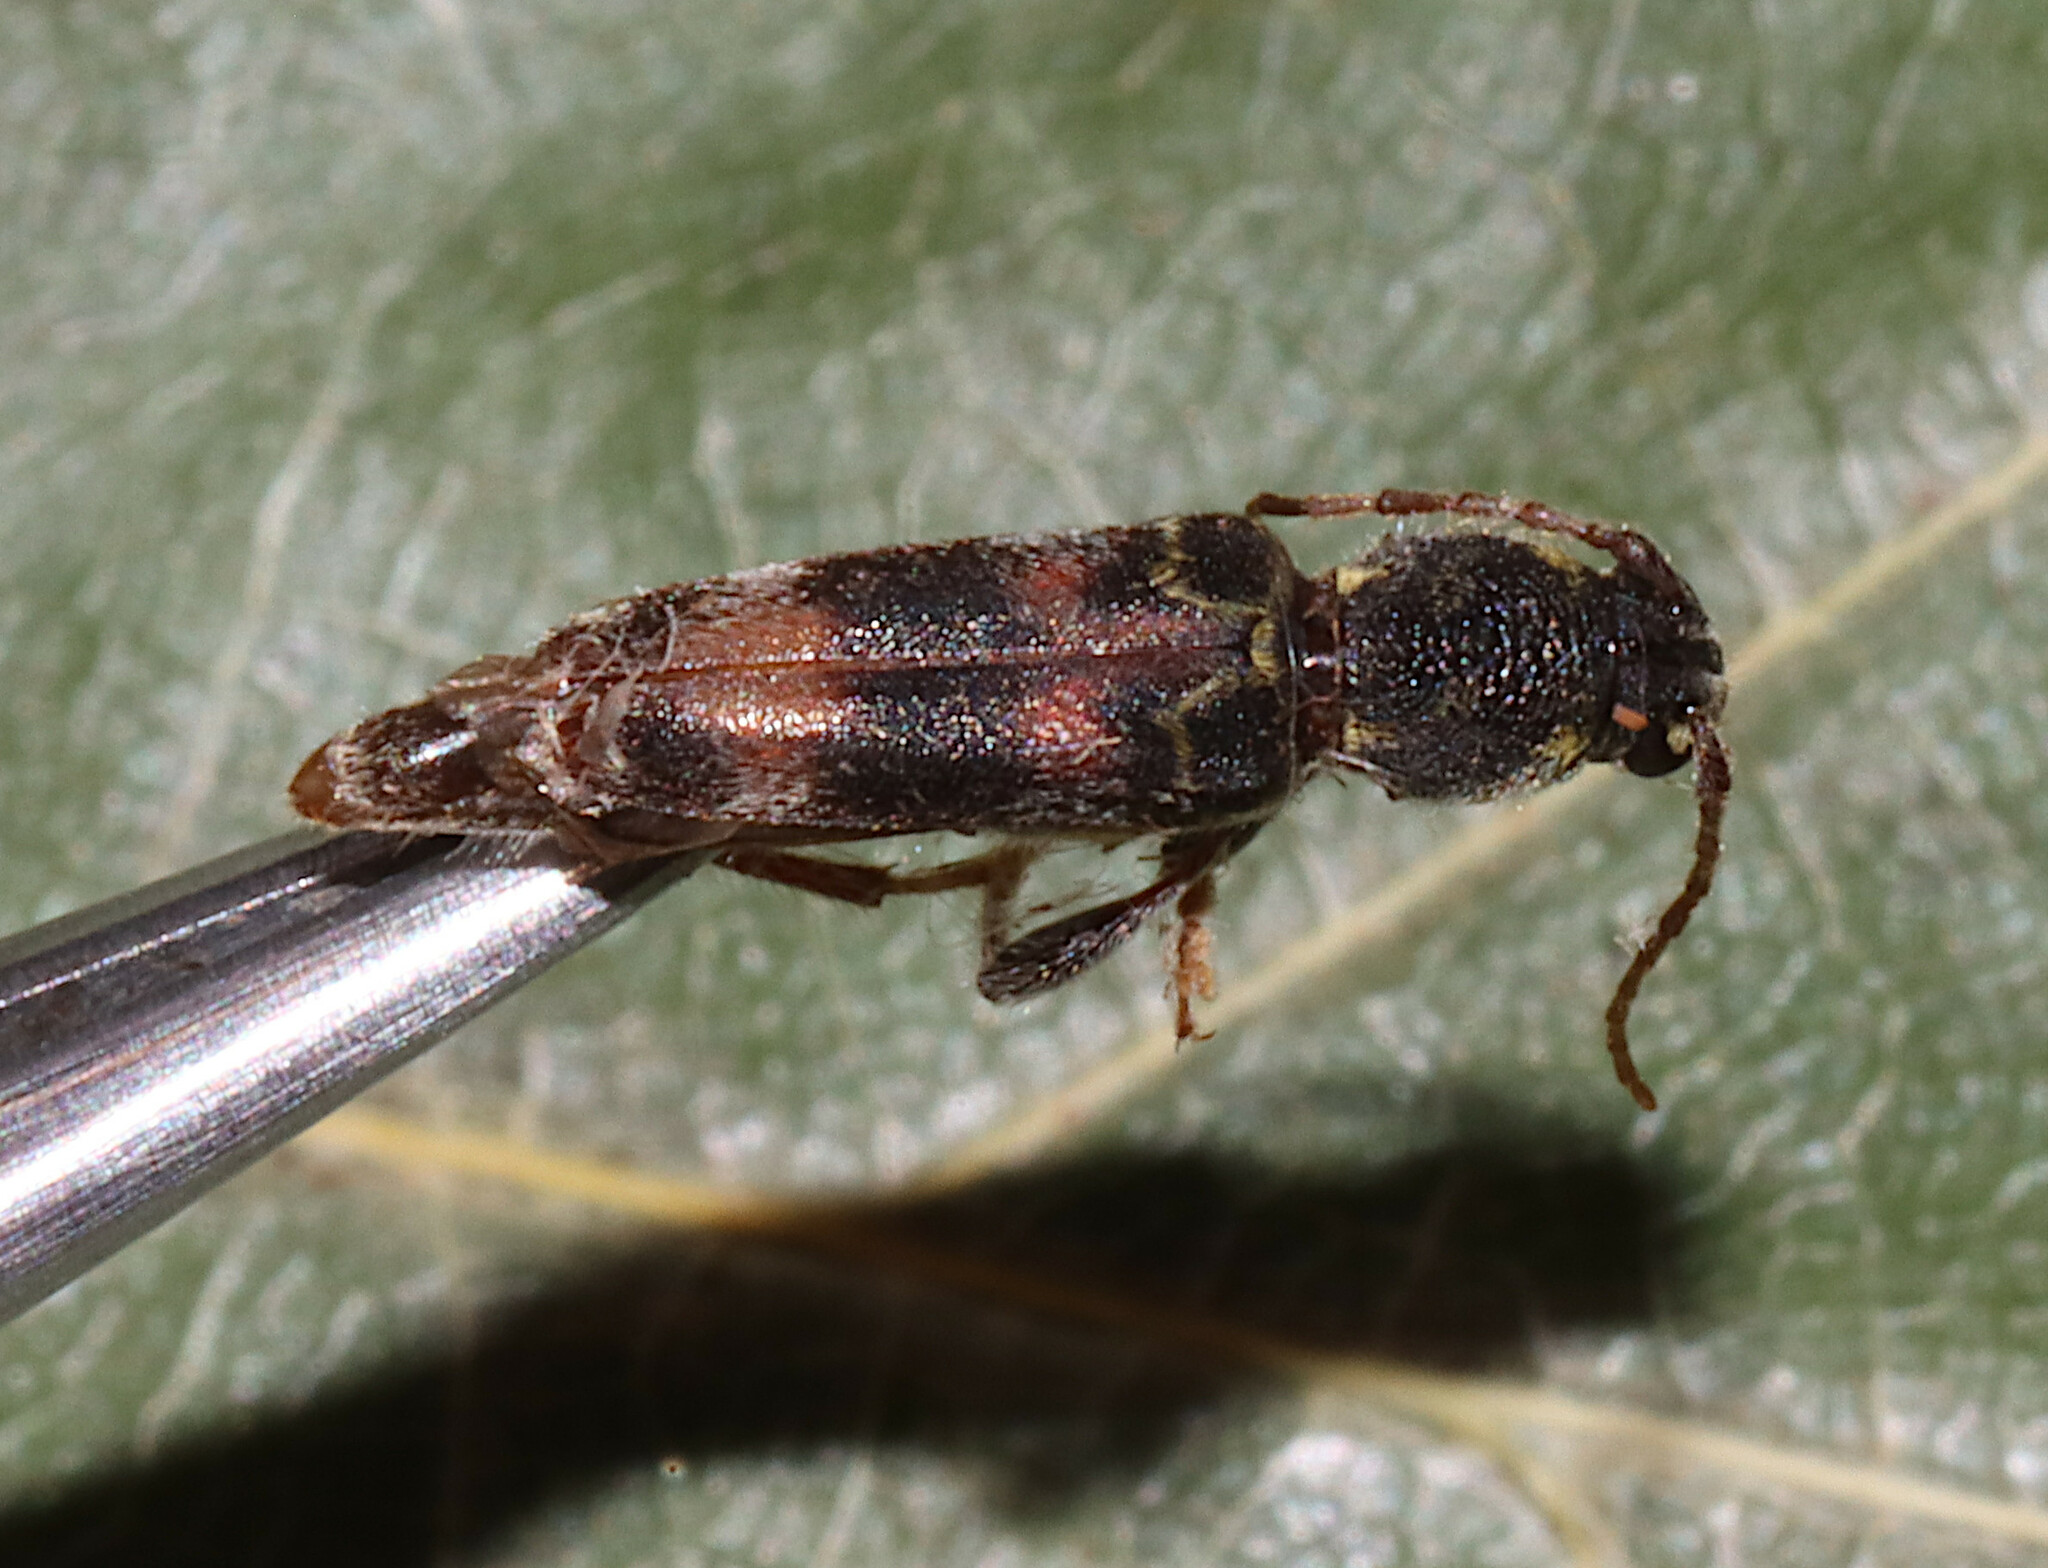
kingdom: Animalia
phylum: Arthropoda
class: Insecta
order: Coleoptera
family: Cerambycidae
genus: Xylotrechus
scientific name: Xylotrechus colonus
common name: Long-horned beetle
